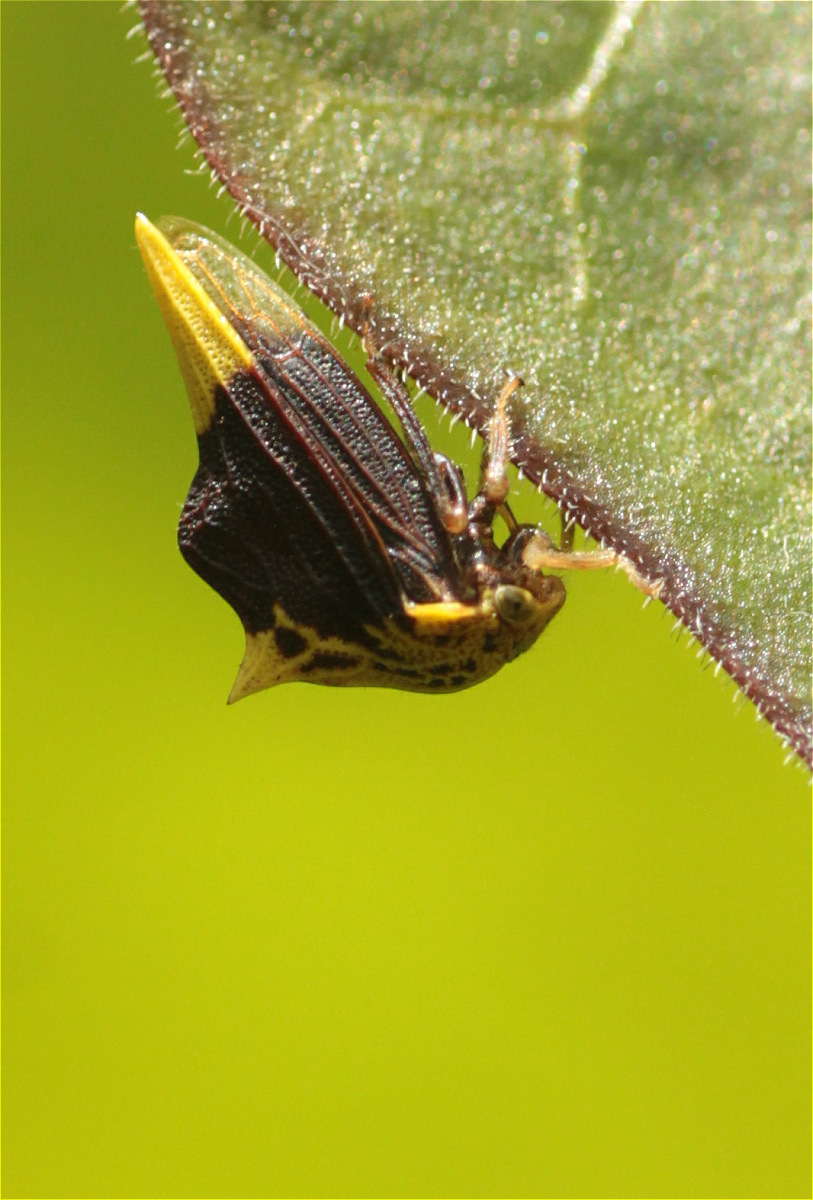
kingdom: Animalia
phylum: Arthropoda
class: Insecta
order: Hemiptera
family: Membracidae
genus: Ennya
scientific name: Ennya chrysura
